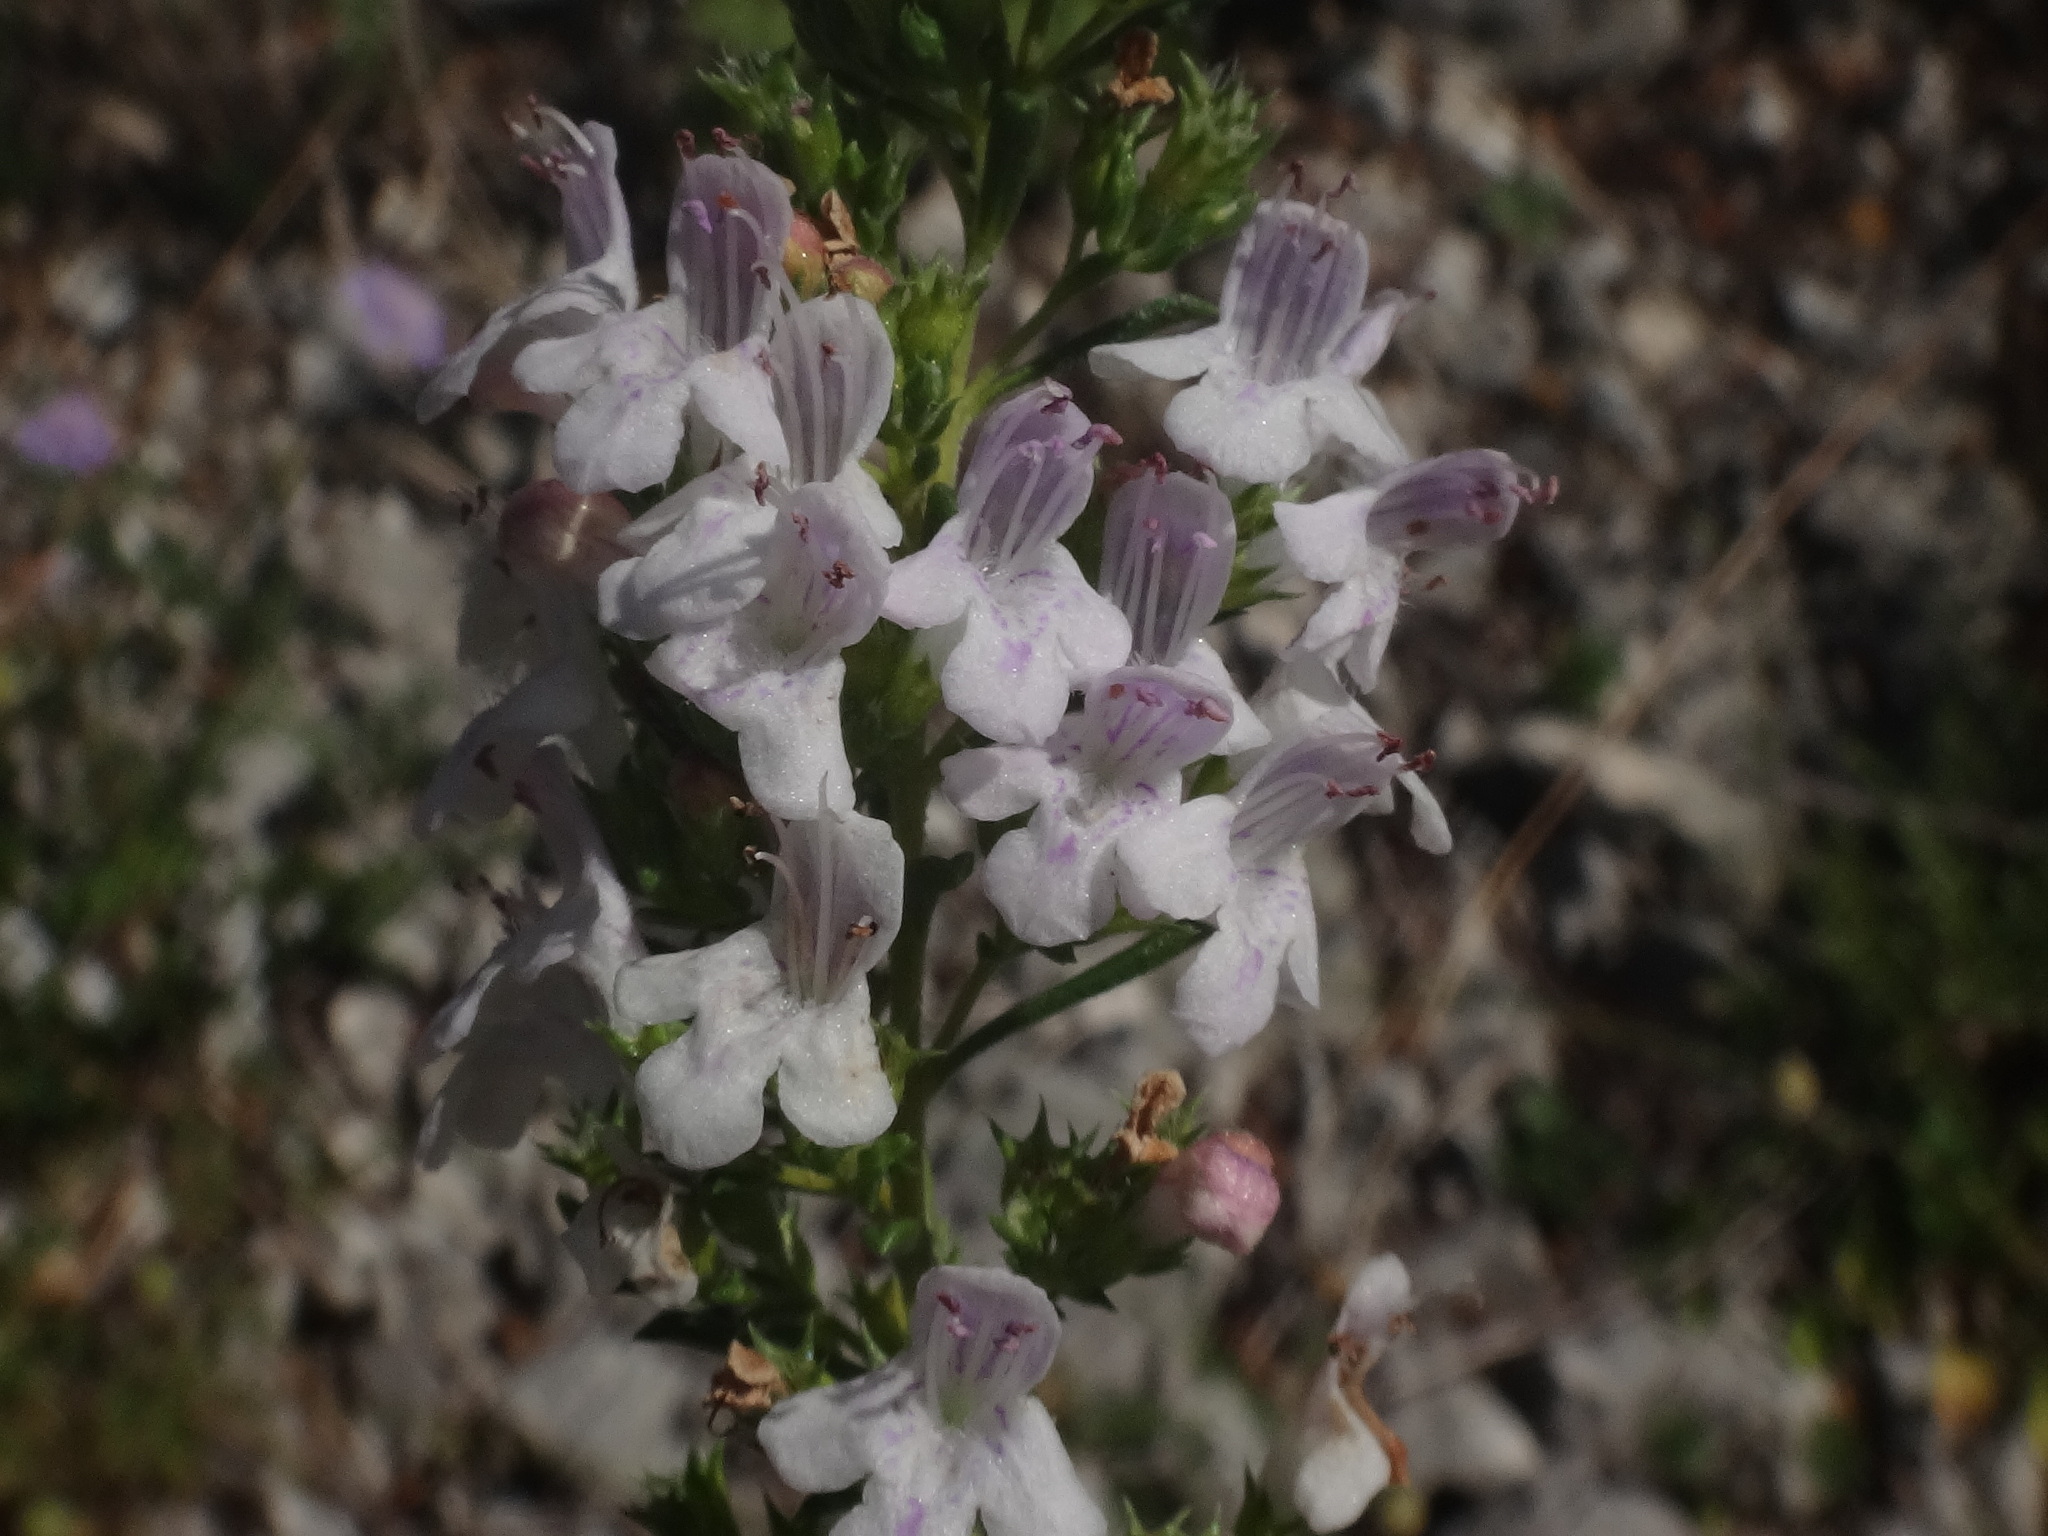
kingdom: Plantae
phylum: Tracheophyta
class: Magnoliopsida
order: Lamiales
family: Lamiaceae
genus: Satureja
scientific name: Satureja montana
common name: Winter savory
